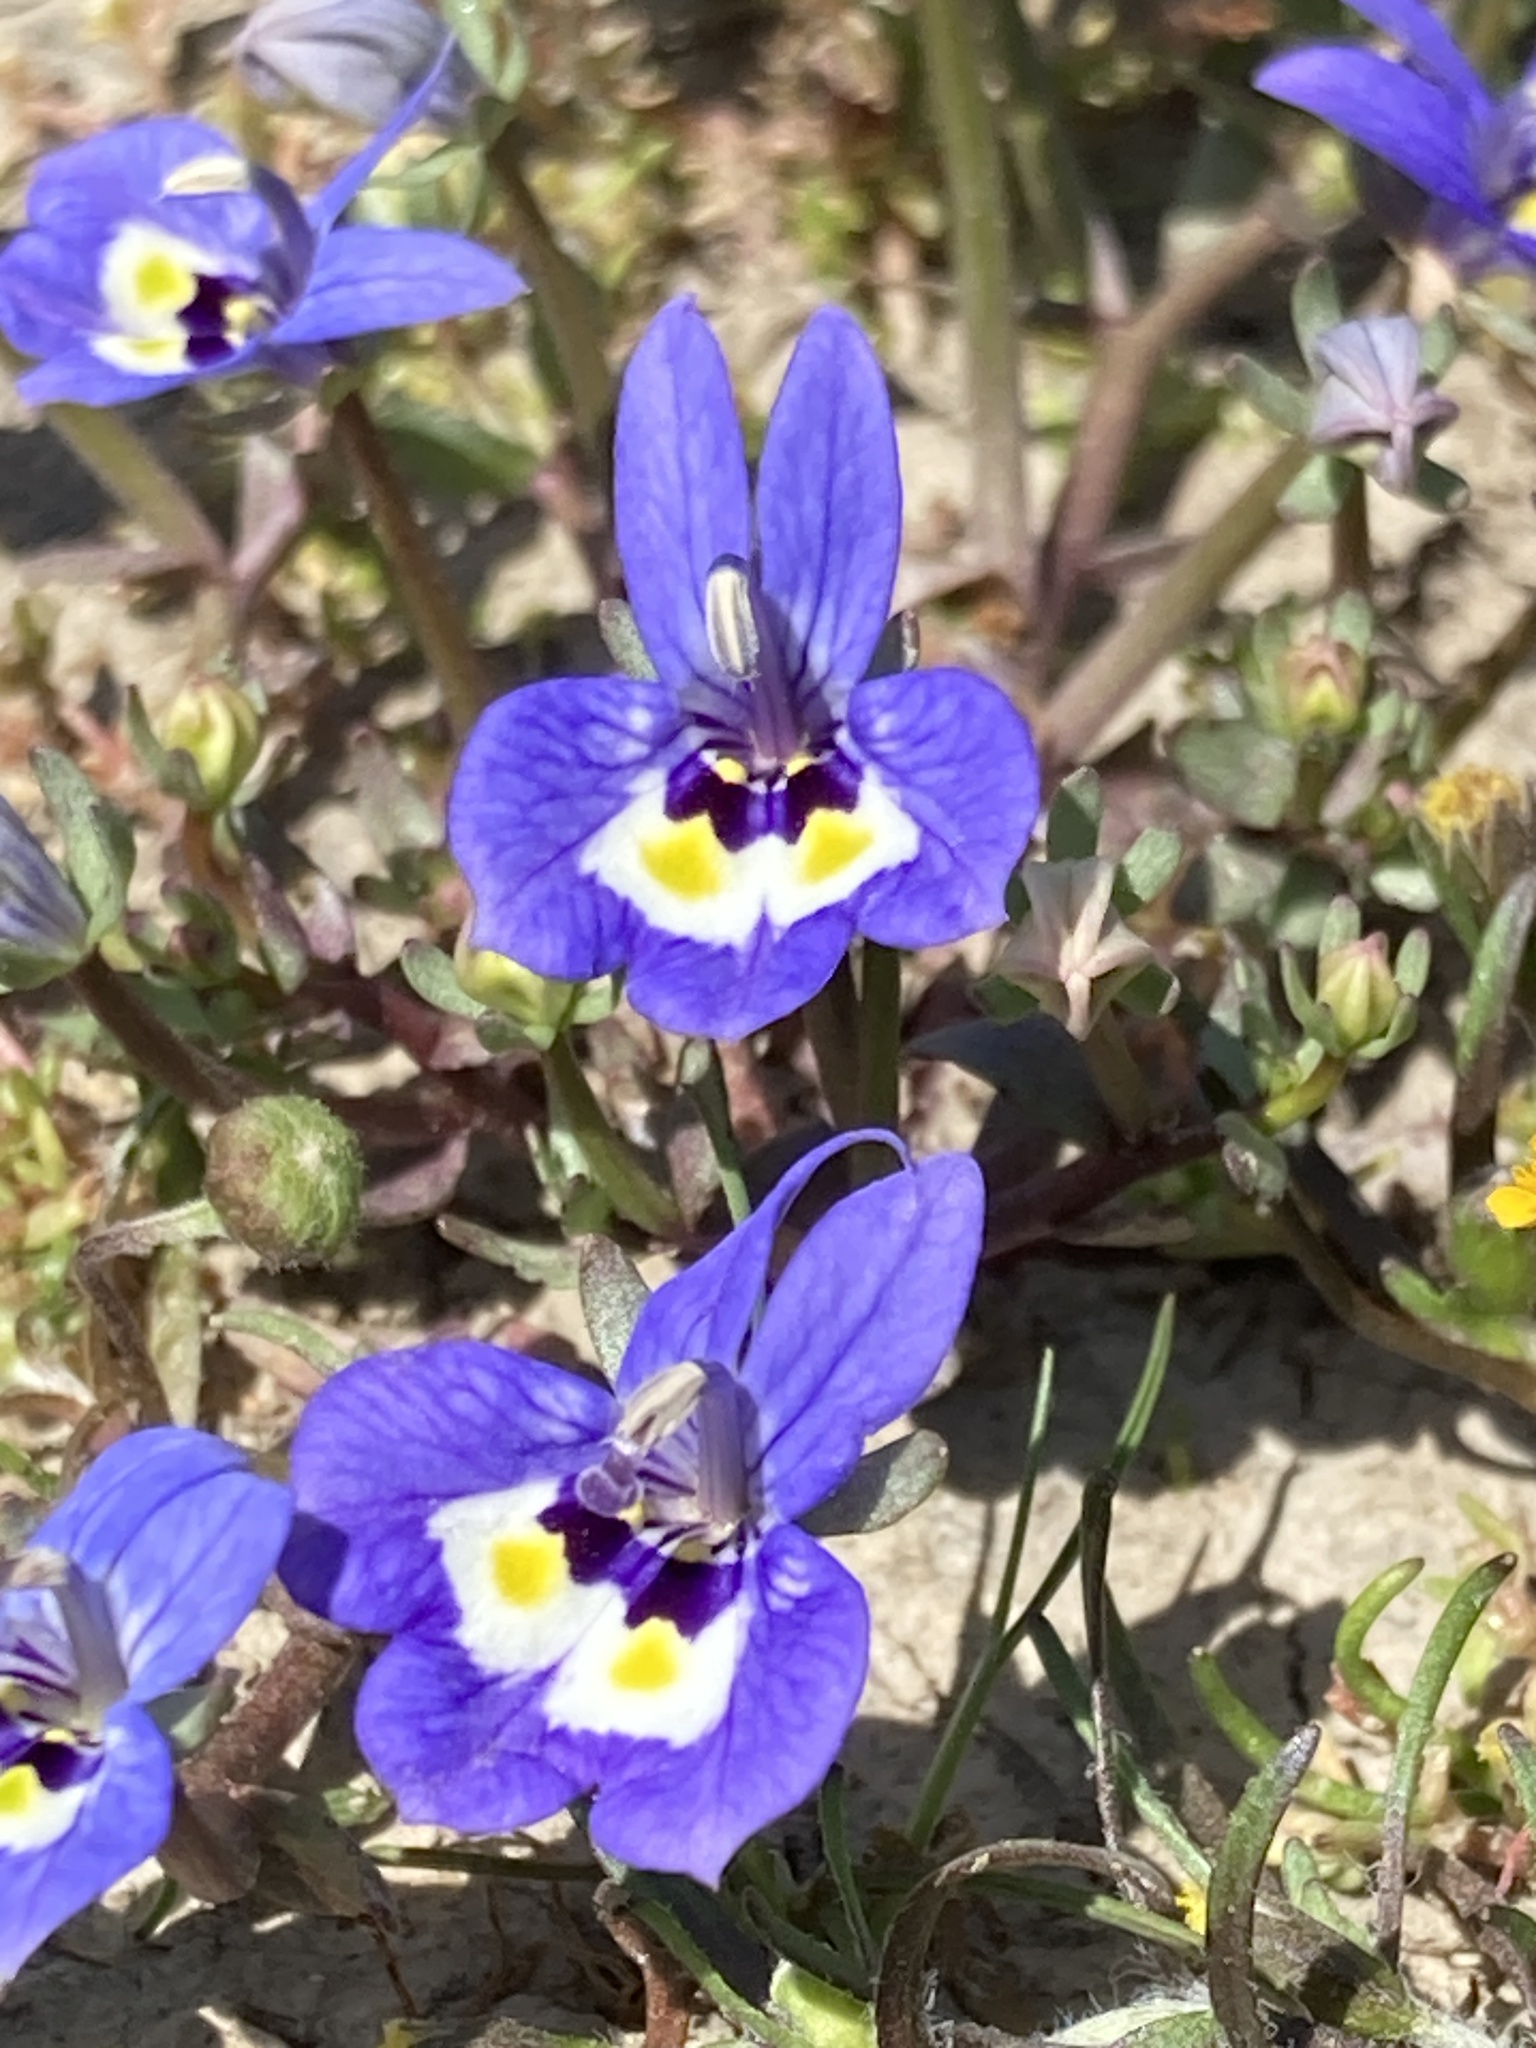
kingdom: Plantae
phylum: Tracheophyta
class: Magnoliopsida
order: Asterales
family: Campanulaceae
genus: Downingia
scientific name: Downingia insignis
